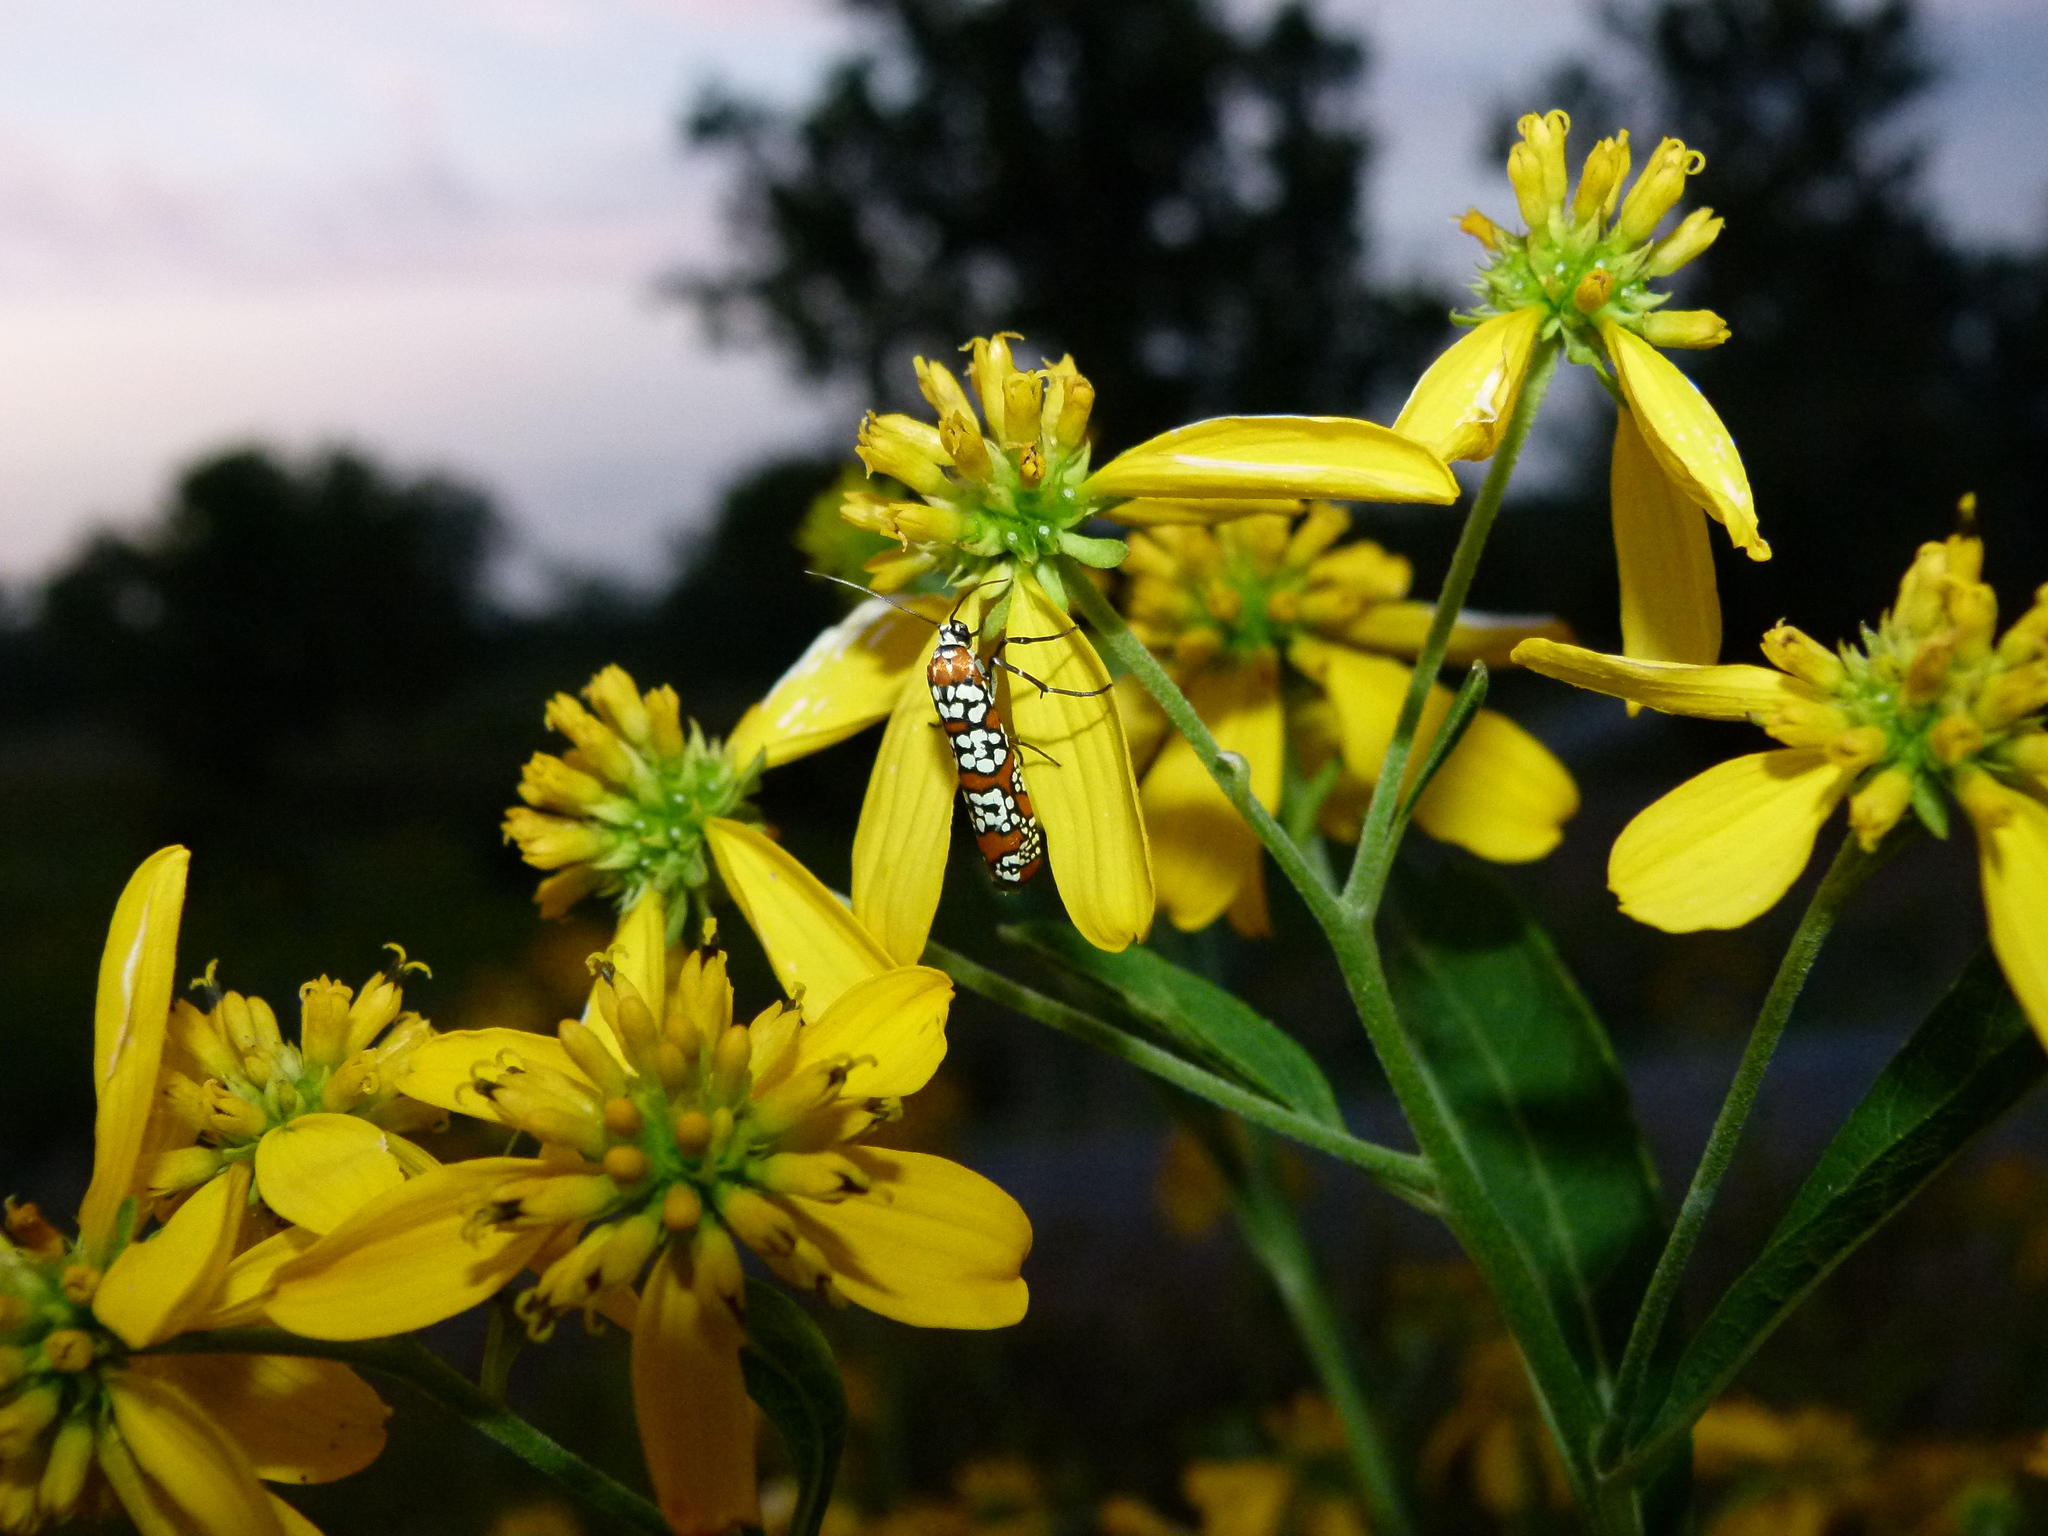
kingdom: Animalia
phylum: Arthropoda
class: Insecta
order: Lepidoptera
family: Attevidae
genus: Atteva
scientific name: Atteva punctella
